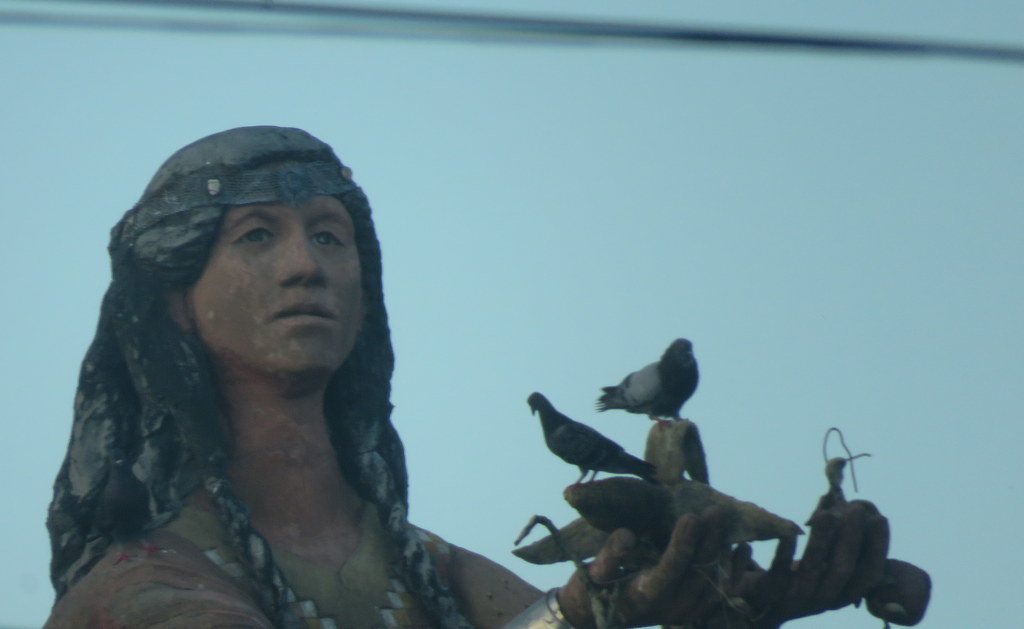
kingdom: Animalia
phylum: Chordata
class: Aves
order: Columbiformes
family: Columbidae
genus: Columba
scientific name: Columba livia
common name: Rock pigeon
